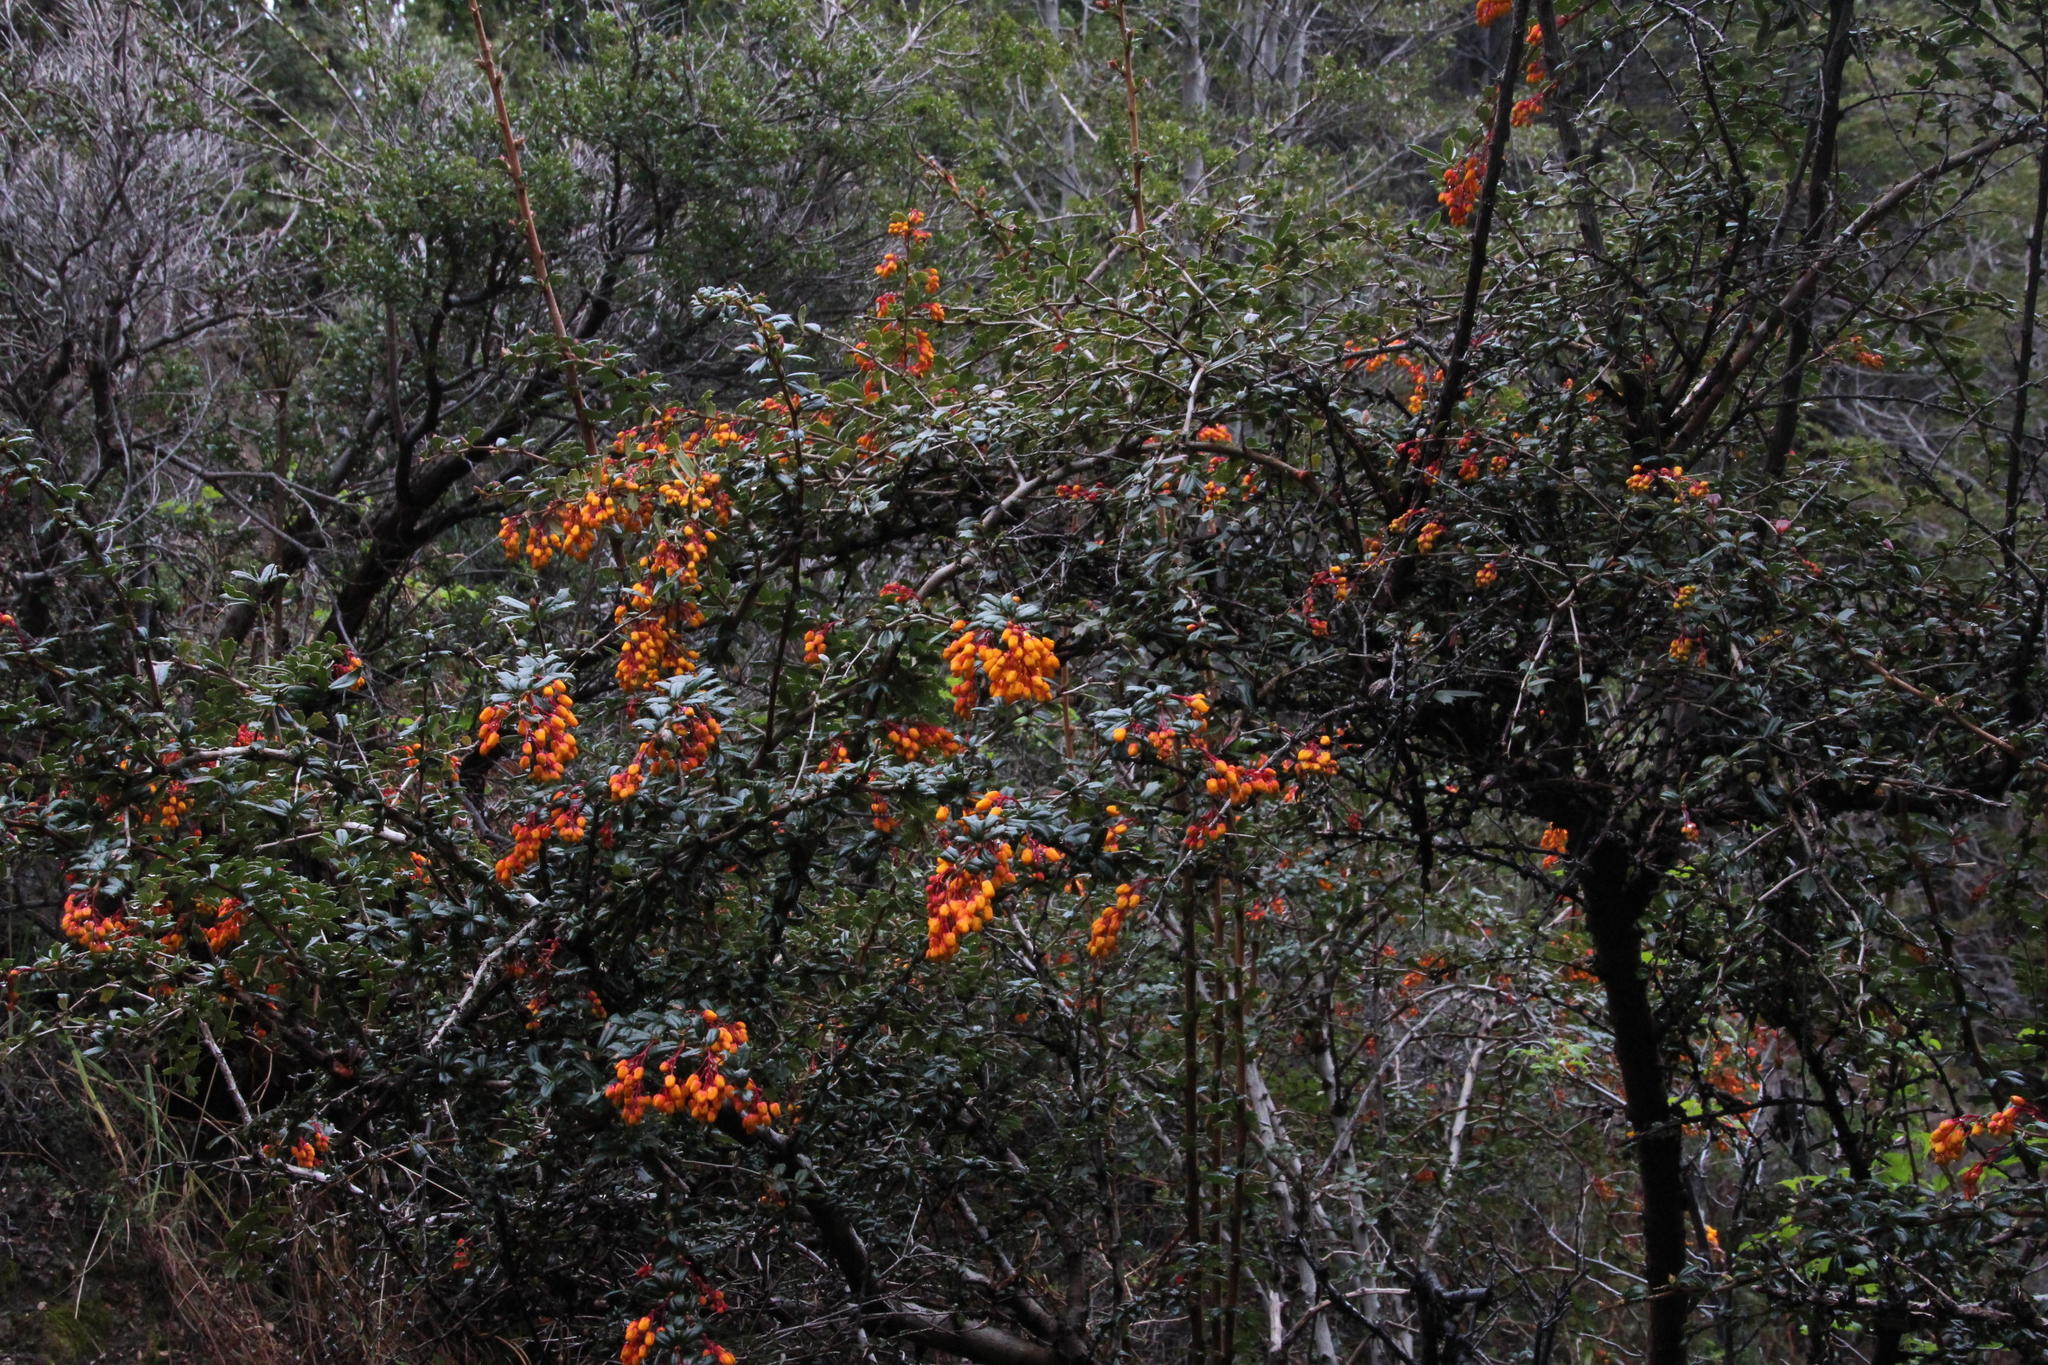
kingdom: Plantae
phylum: Tracheophyta
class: Magnoliopsida
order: Ranunculales
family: Berberidaceae
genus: Berberis
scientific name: Berberis darwinii
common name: Darwin's barberry
